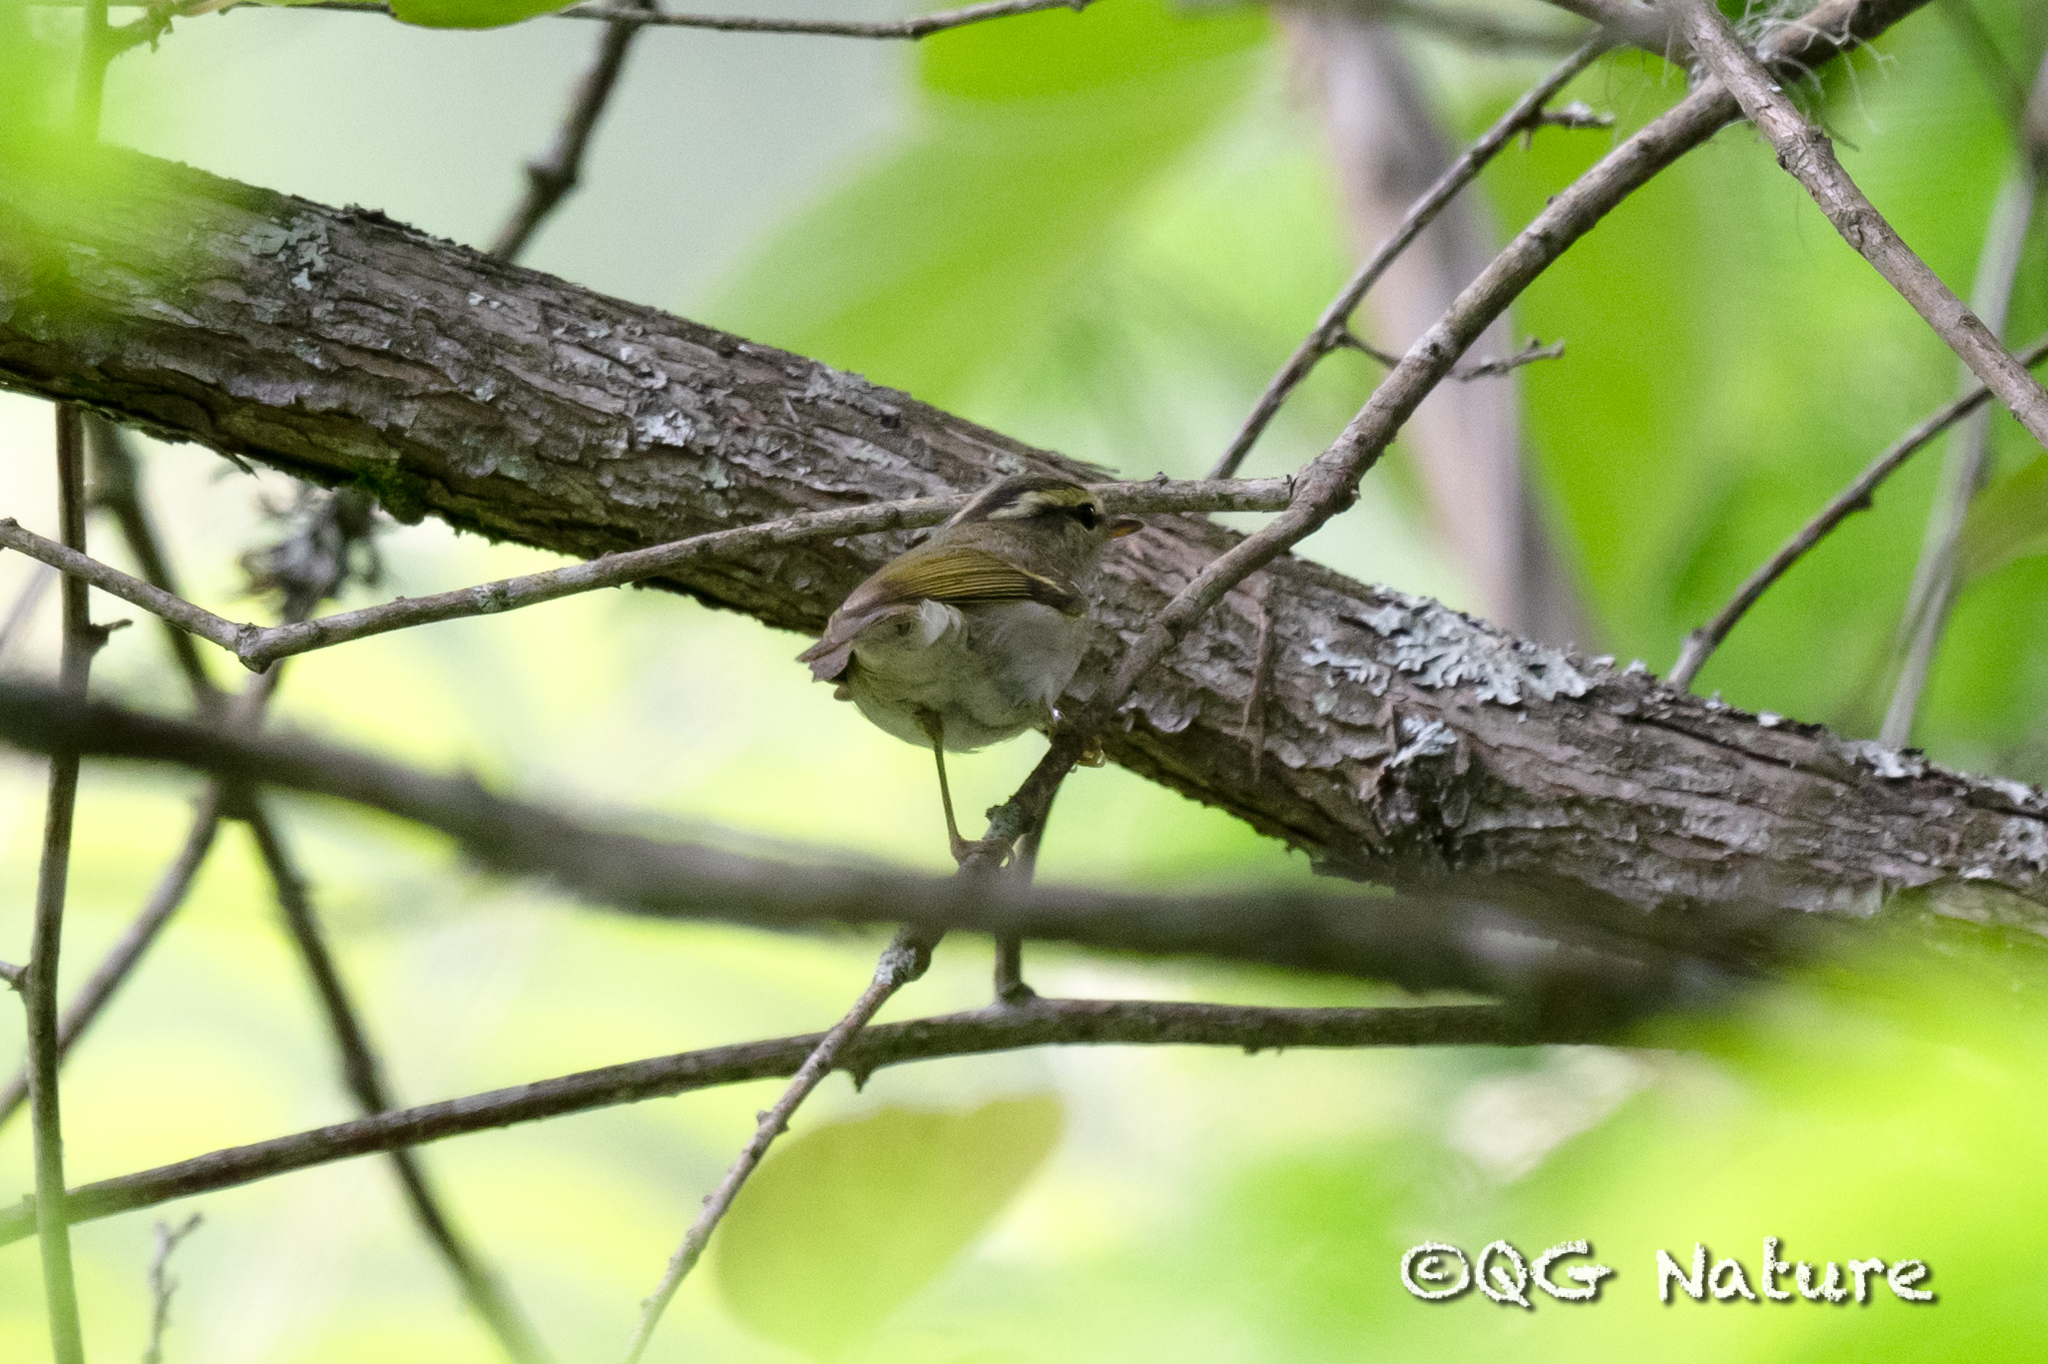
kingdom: Animalia
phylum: Chordata
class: Aves
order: Passeriformes
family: Phylloscopidae
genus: Phylloscopus
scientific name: Phylloscopus reguloides
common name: Blyth's leaf warbler
